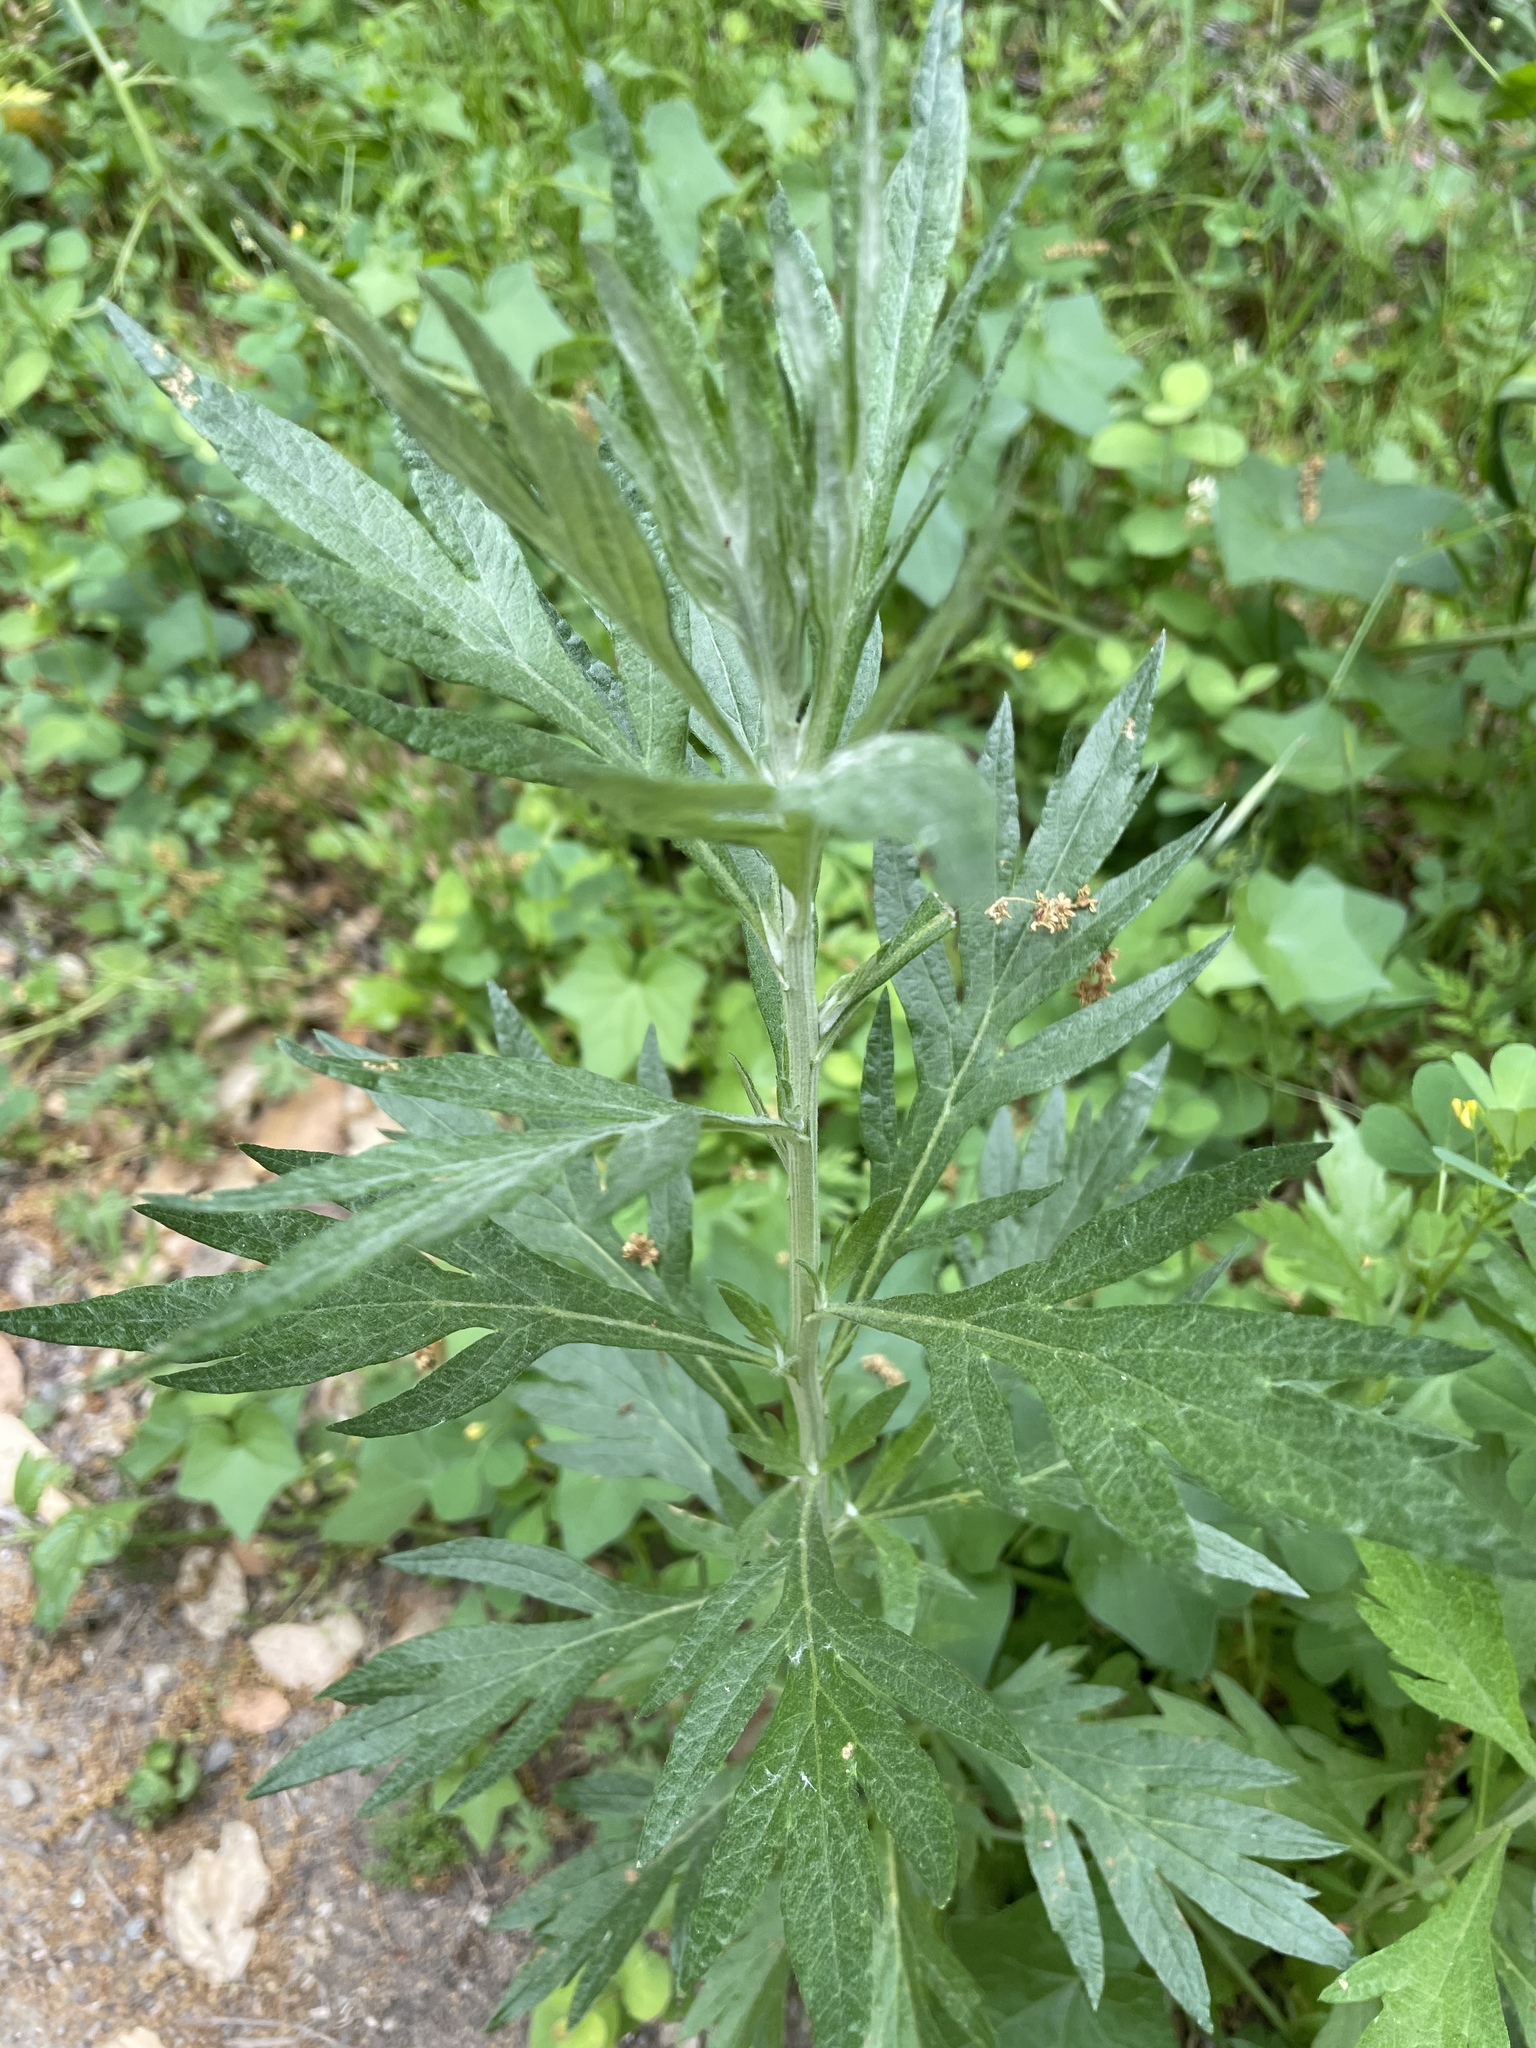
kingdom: Plantae
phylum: Tracheophyta
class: Magnoliopsida
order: Asterales
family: Asteraceae
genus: Artemisia
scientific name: Artemisia douglasiana
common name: Northwest mugwort
